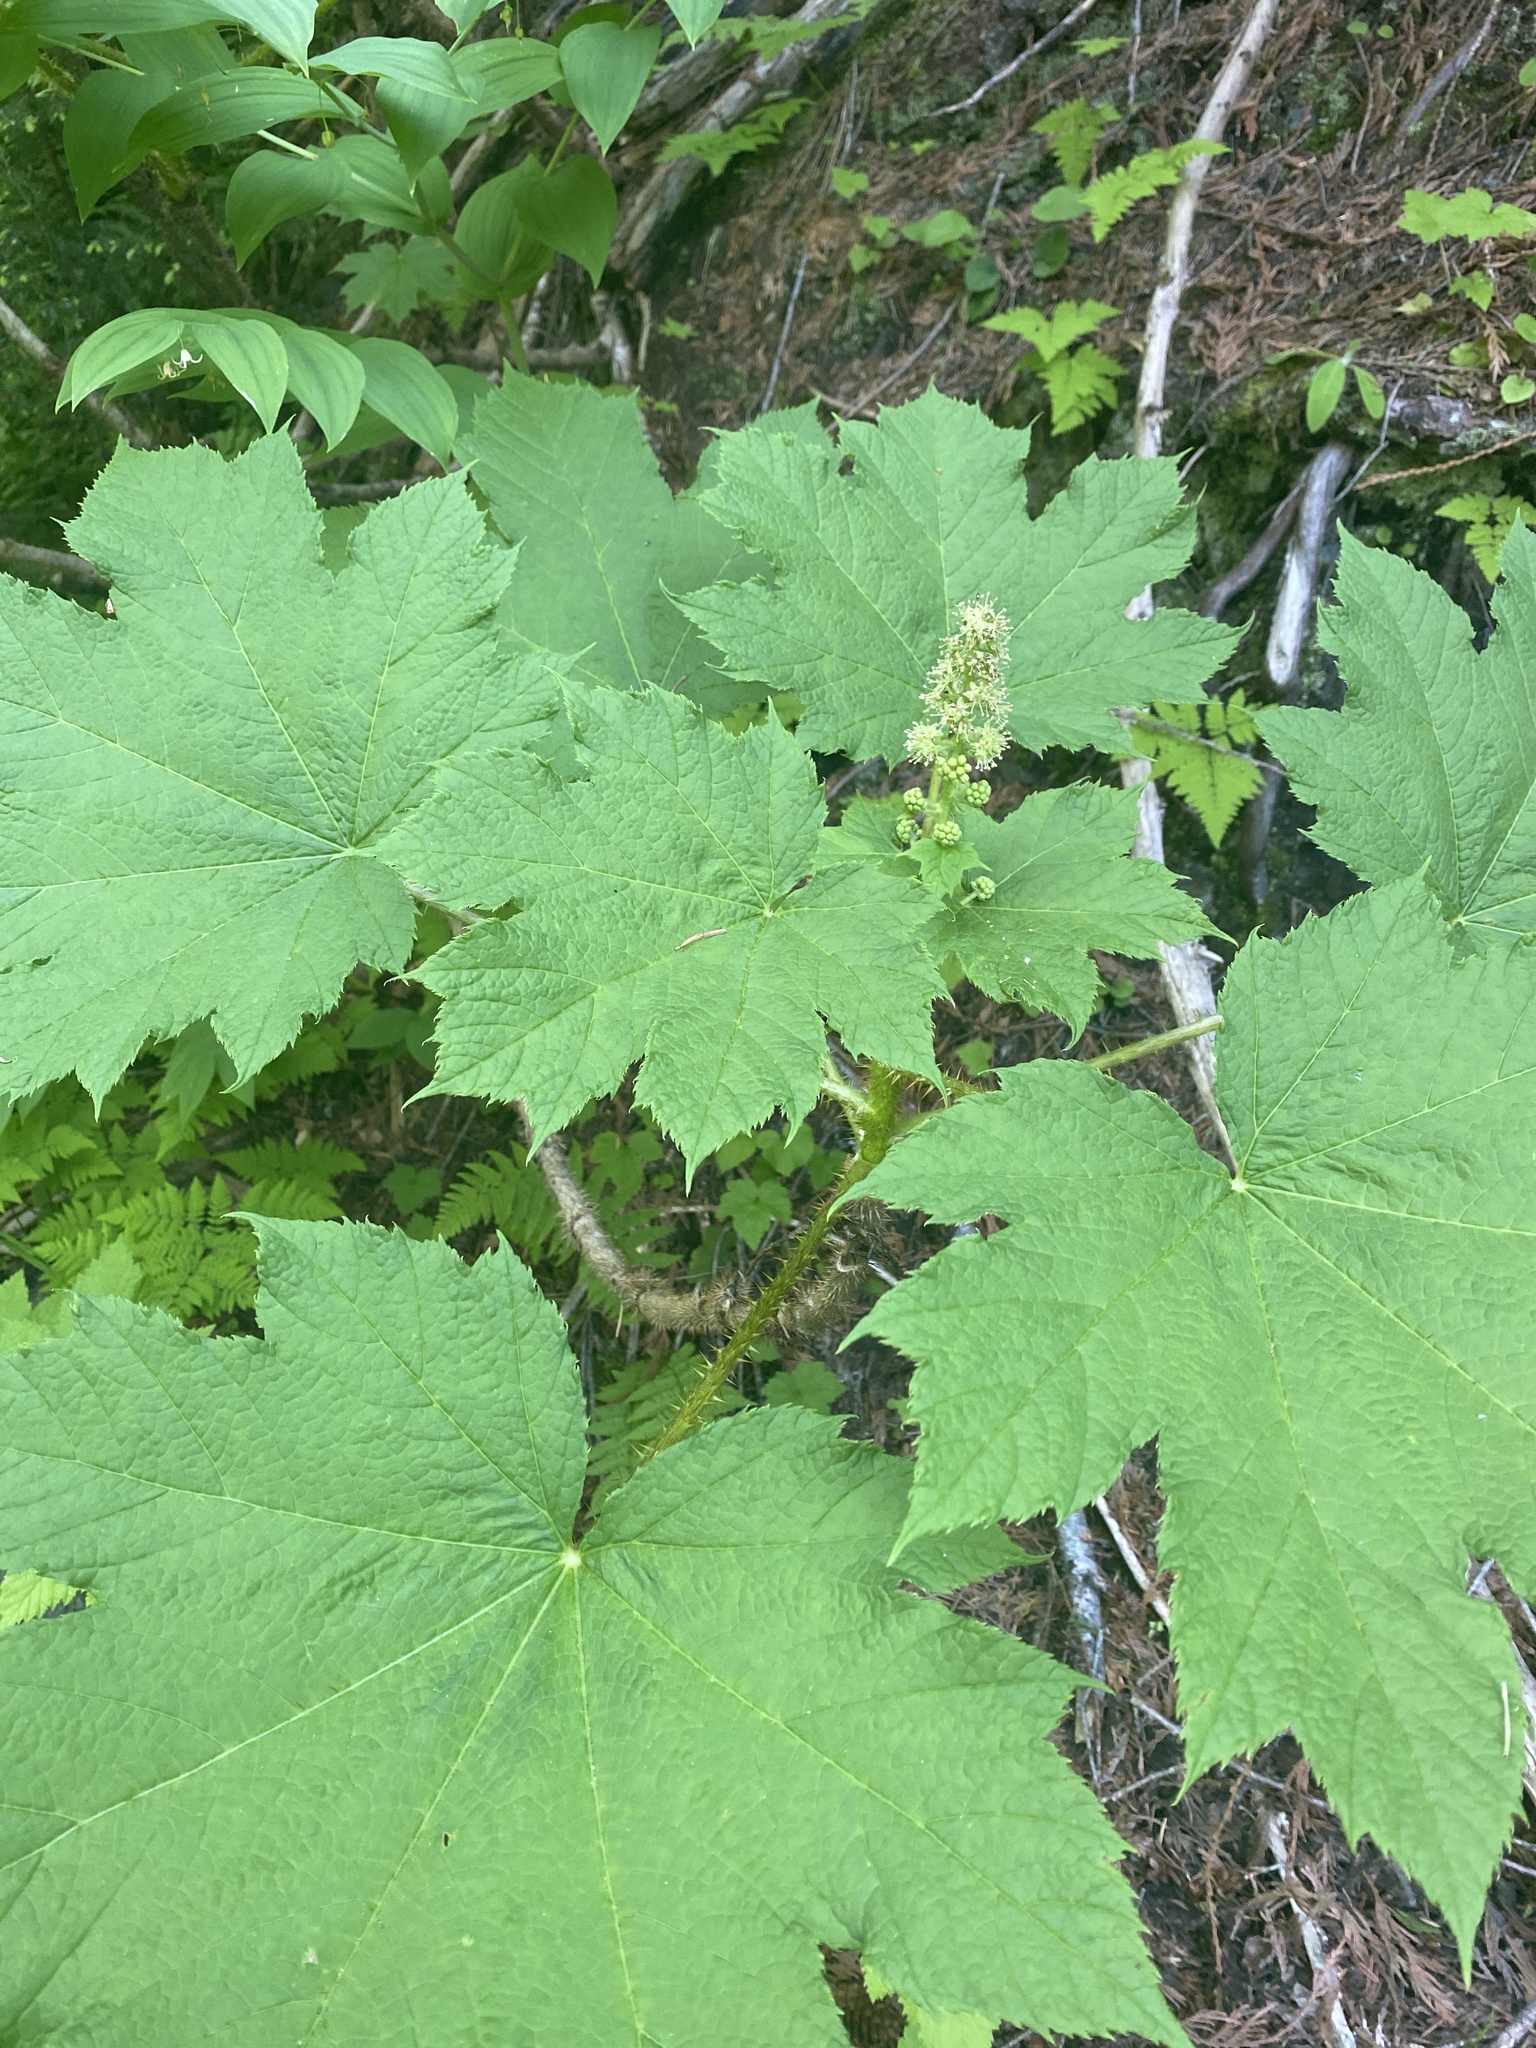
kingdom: Plantae
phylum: Tracheophyta
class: Magnoliopsida
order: Apiales
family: Araliaceae
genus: Oplopanax
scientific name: Oplopanax horridus
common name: Devil's walking-stick
